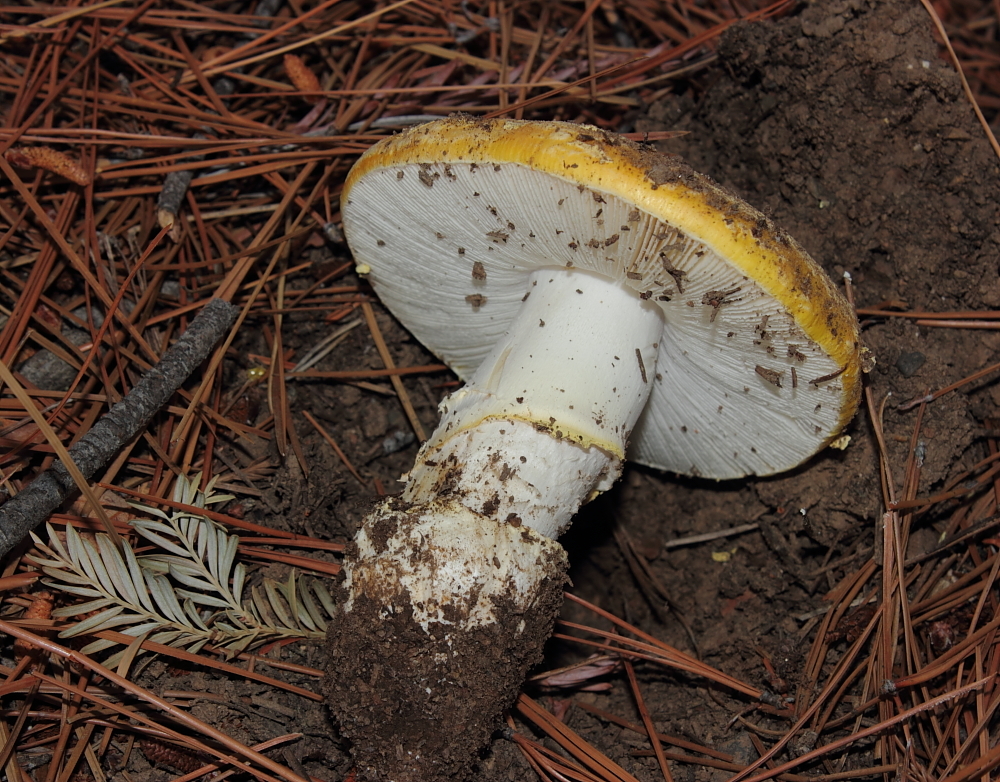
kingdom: Fungi
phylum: Basidiomycota
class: Agaricomycetes
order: Agaricales
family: Amanitaceae
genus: Amanita
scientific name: Amanita aprica
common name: Sunshine amanita
